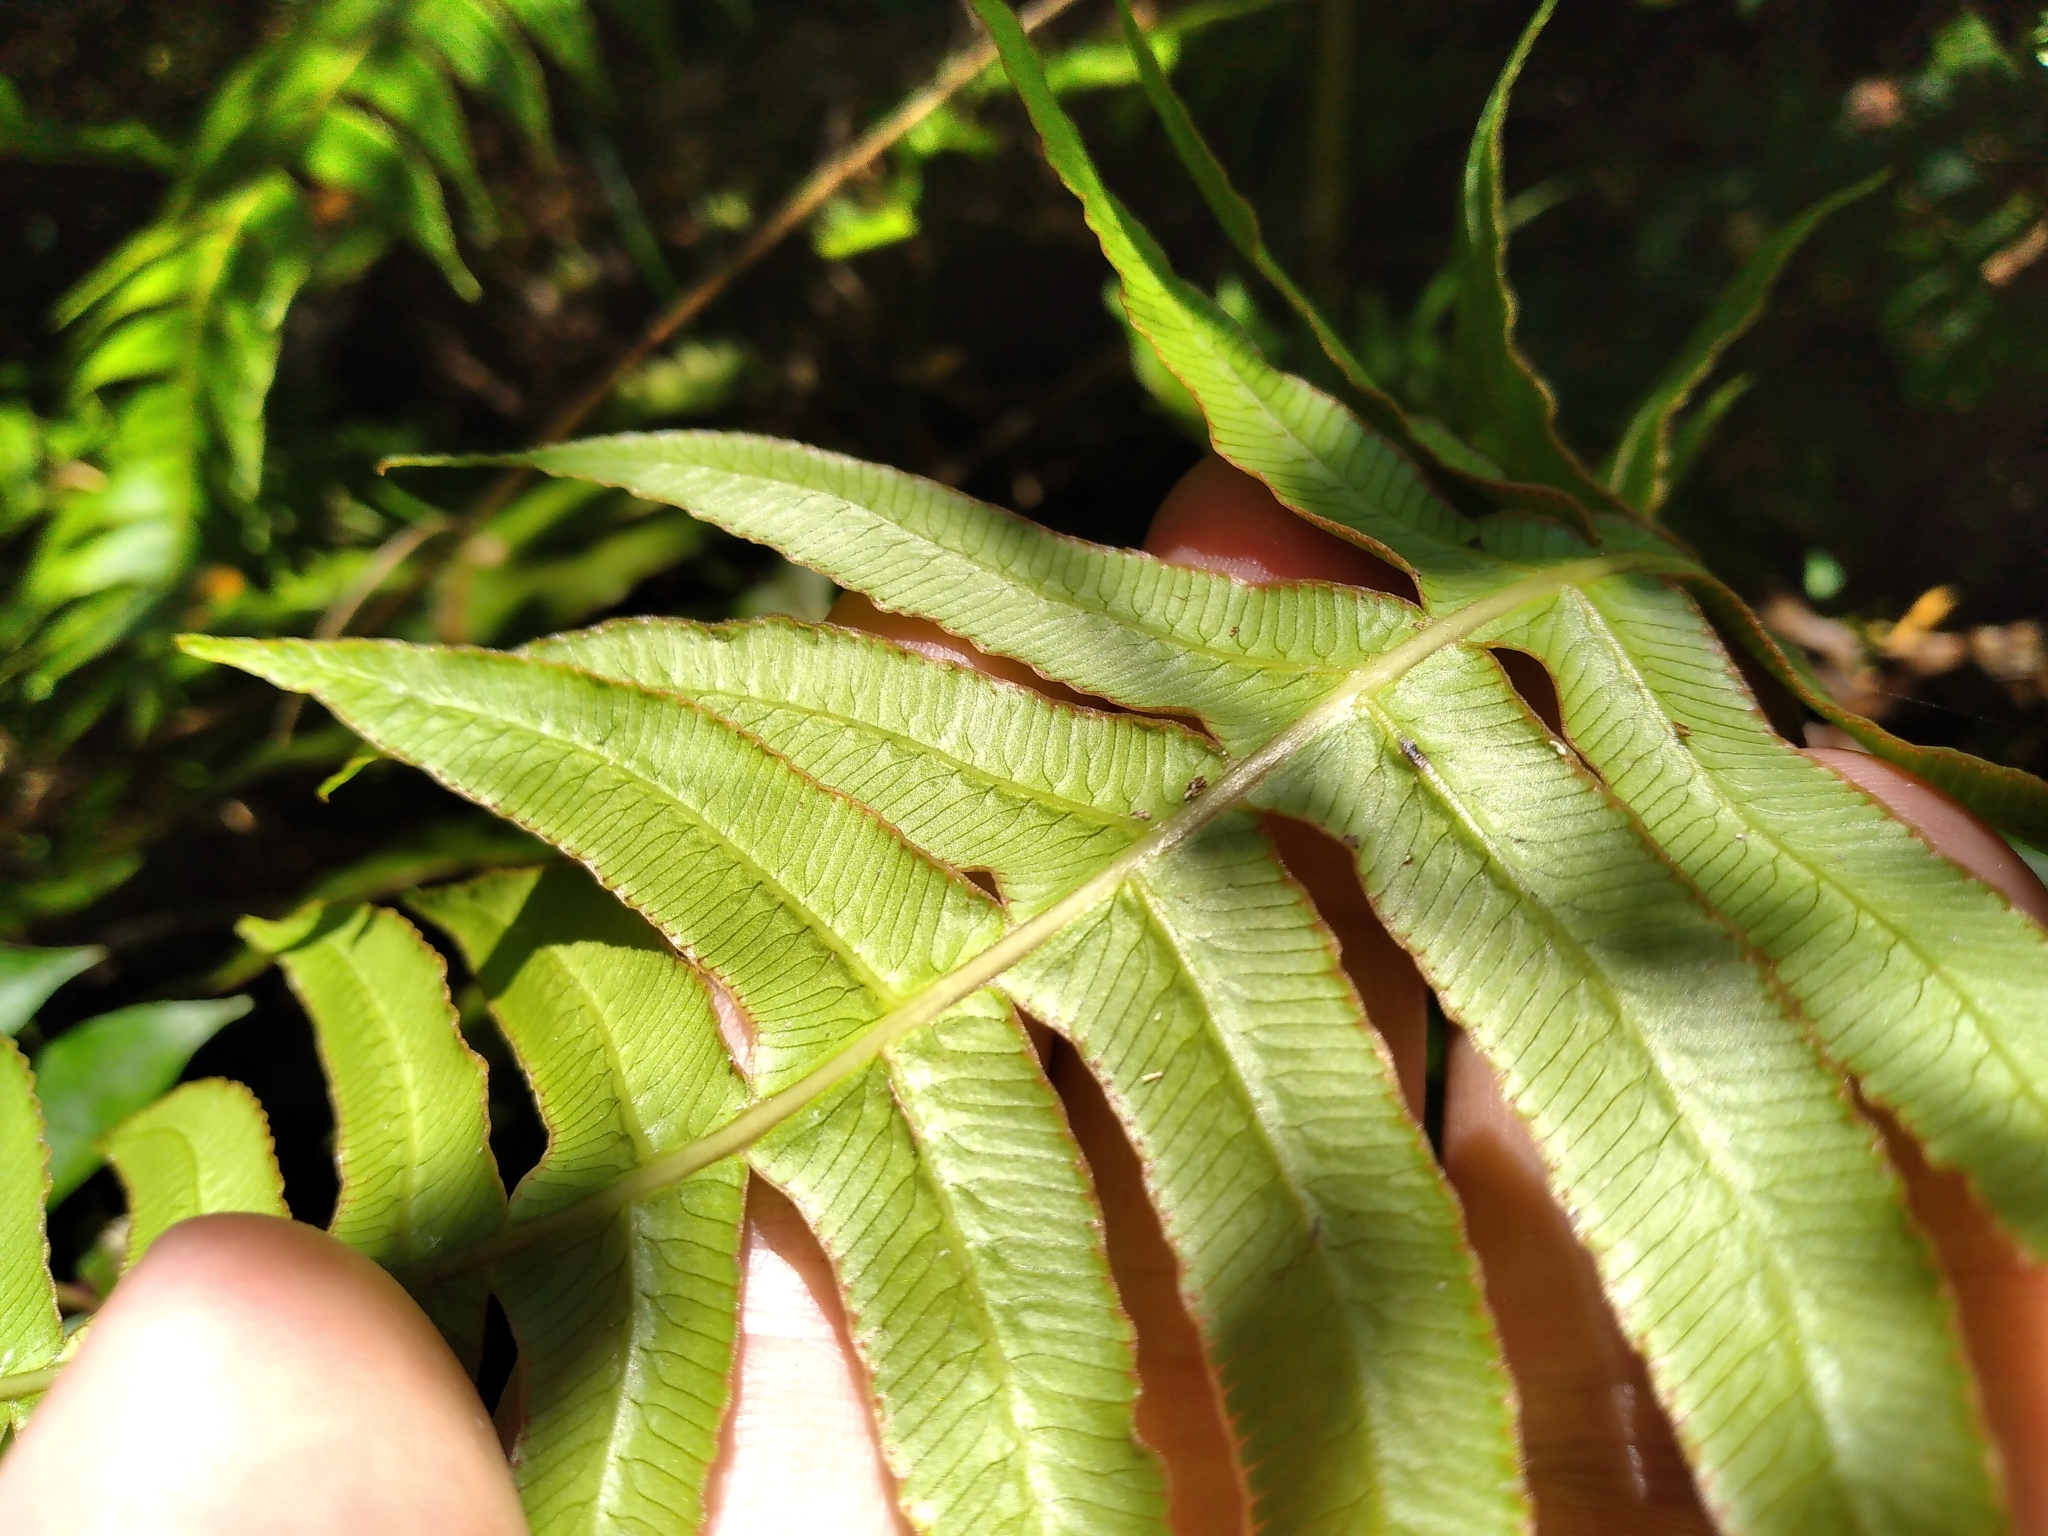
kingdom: Plantae
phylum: Tracheophyta
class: Polypodiopsida
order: Polypodiales
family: Blechnaceae
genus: Cranfillia
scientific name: Cranfillia deltoides
